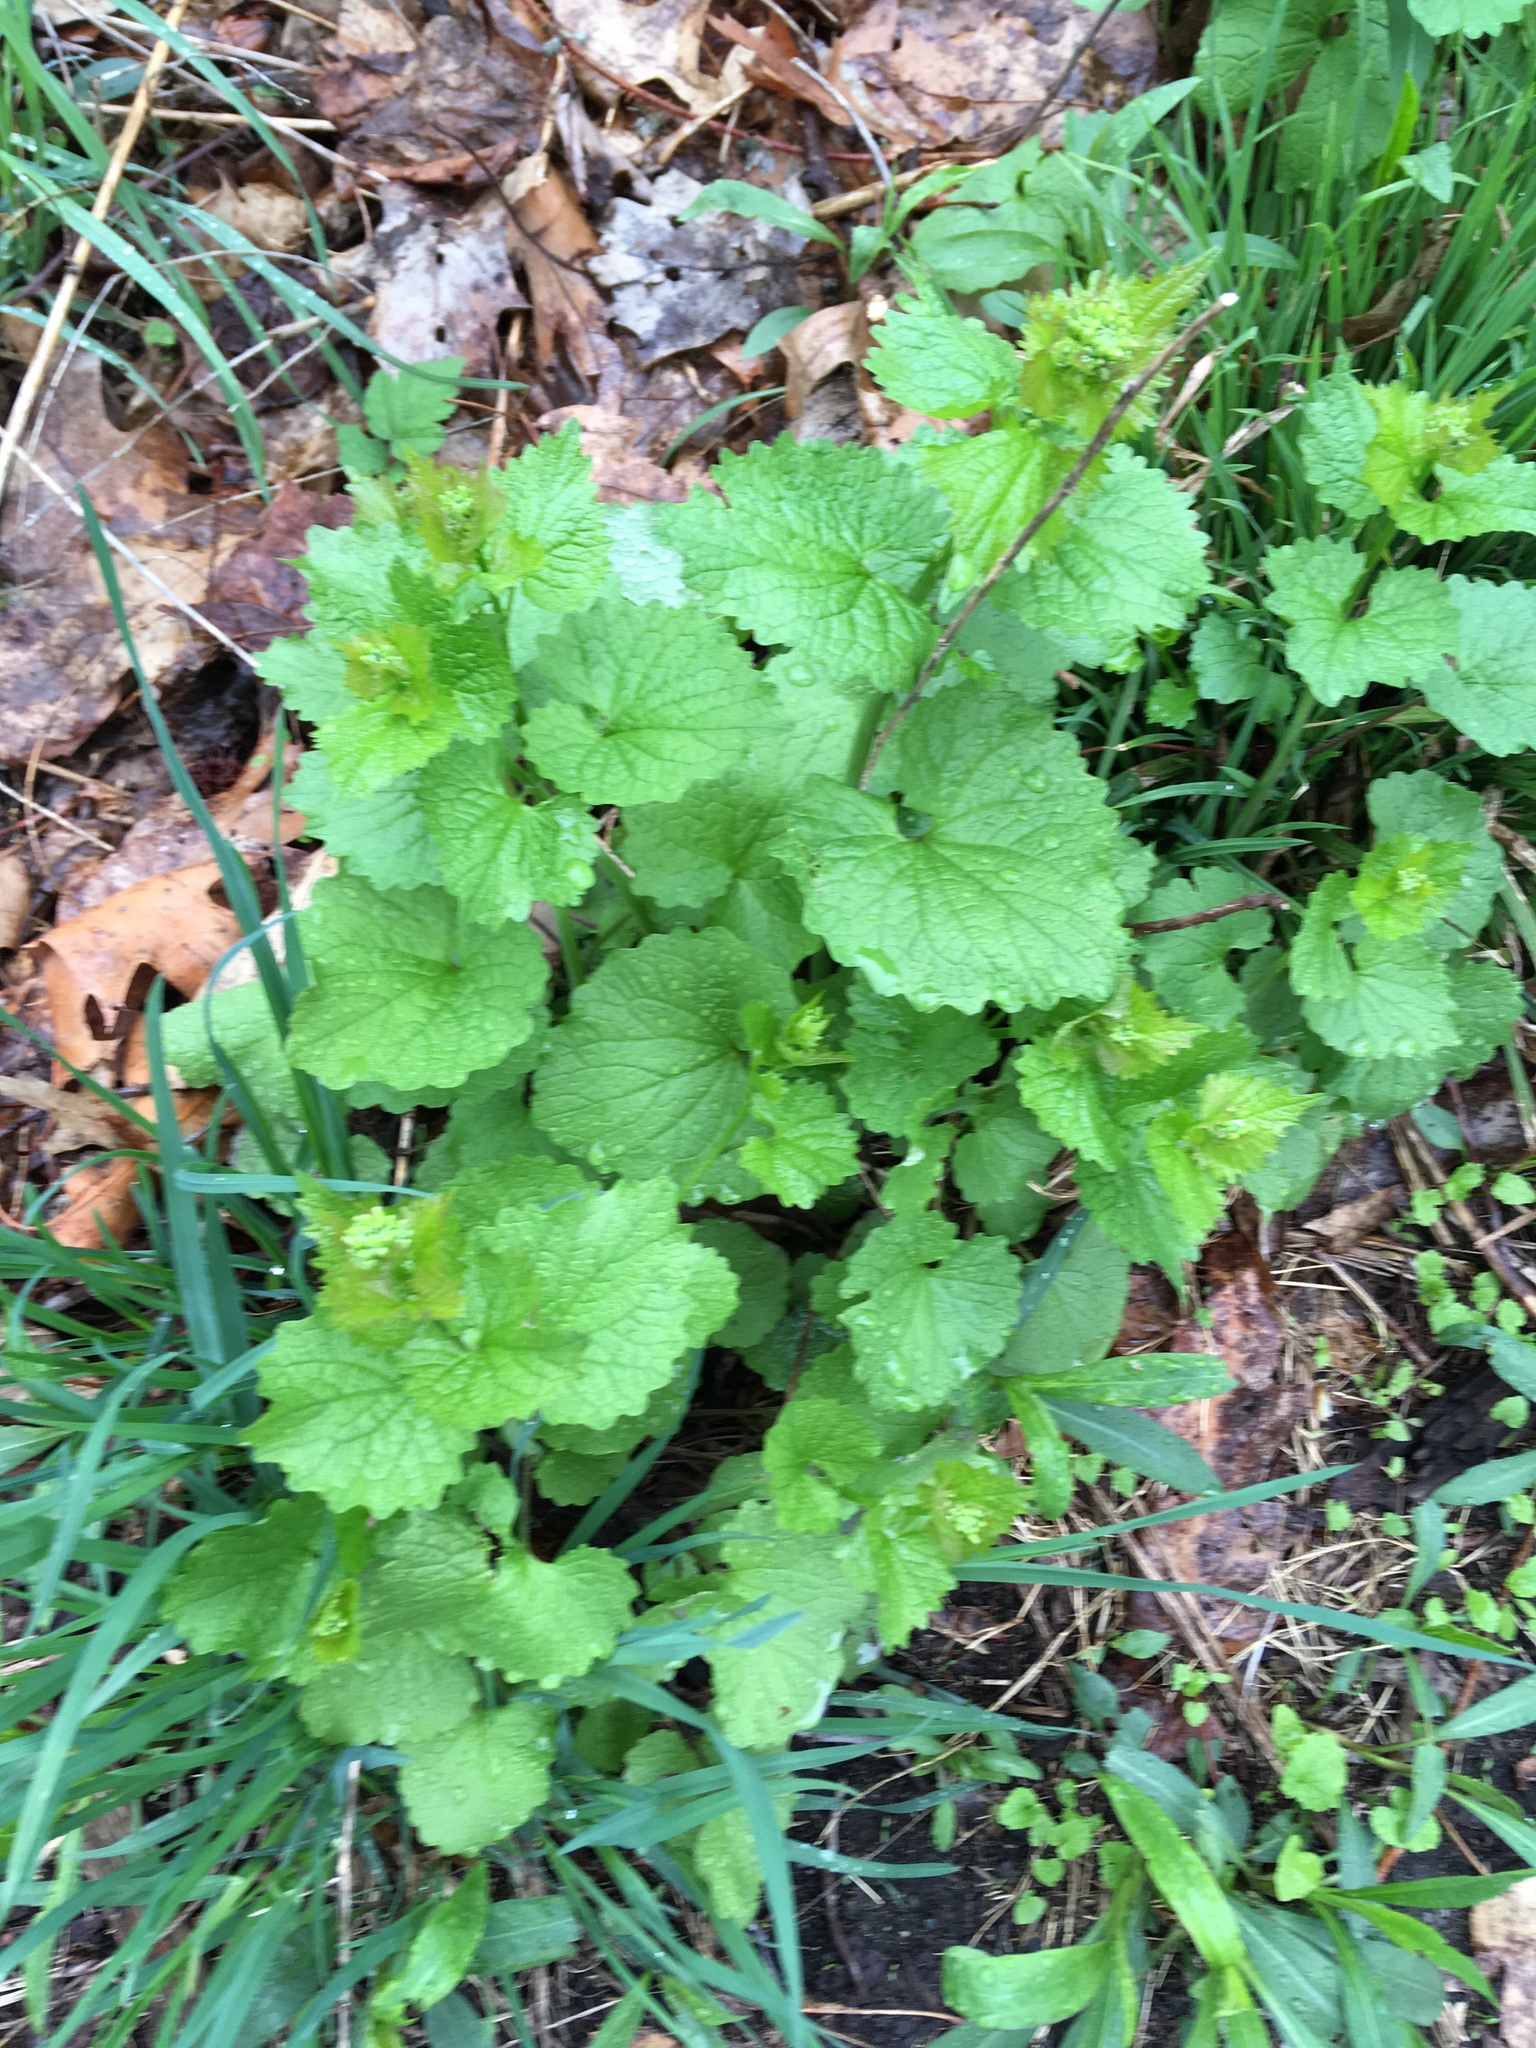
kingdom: Plantae
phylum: Tracheophyta
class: Magnoliopsida
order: Brassicales
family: Brassicaceae
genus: Alliaria
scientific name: Alliaria petiolata
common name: Garlic mustard
